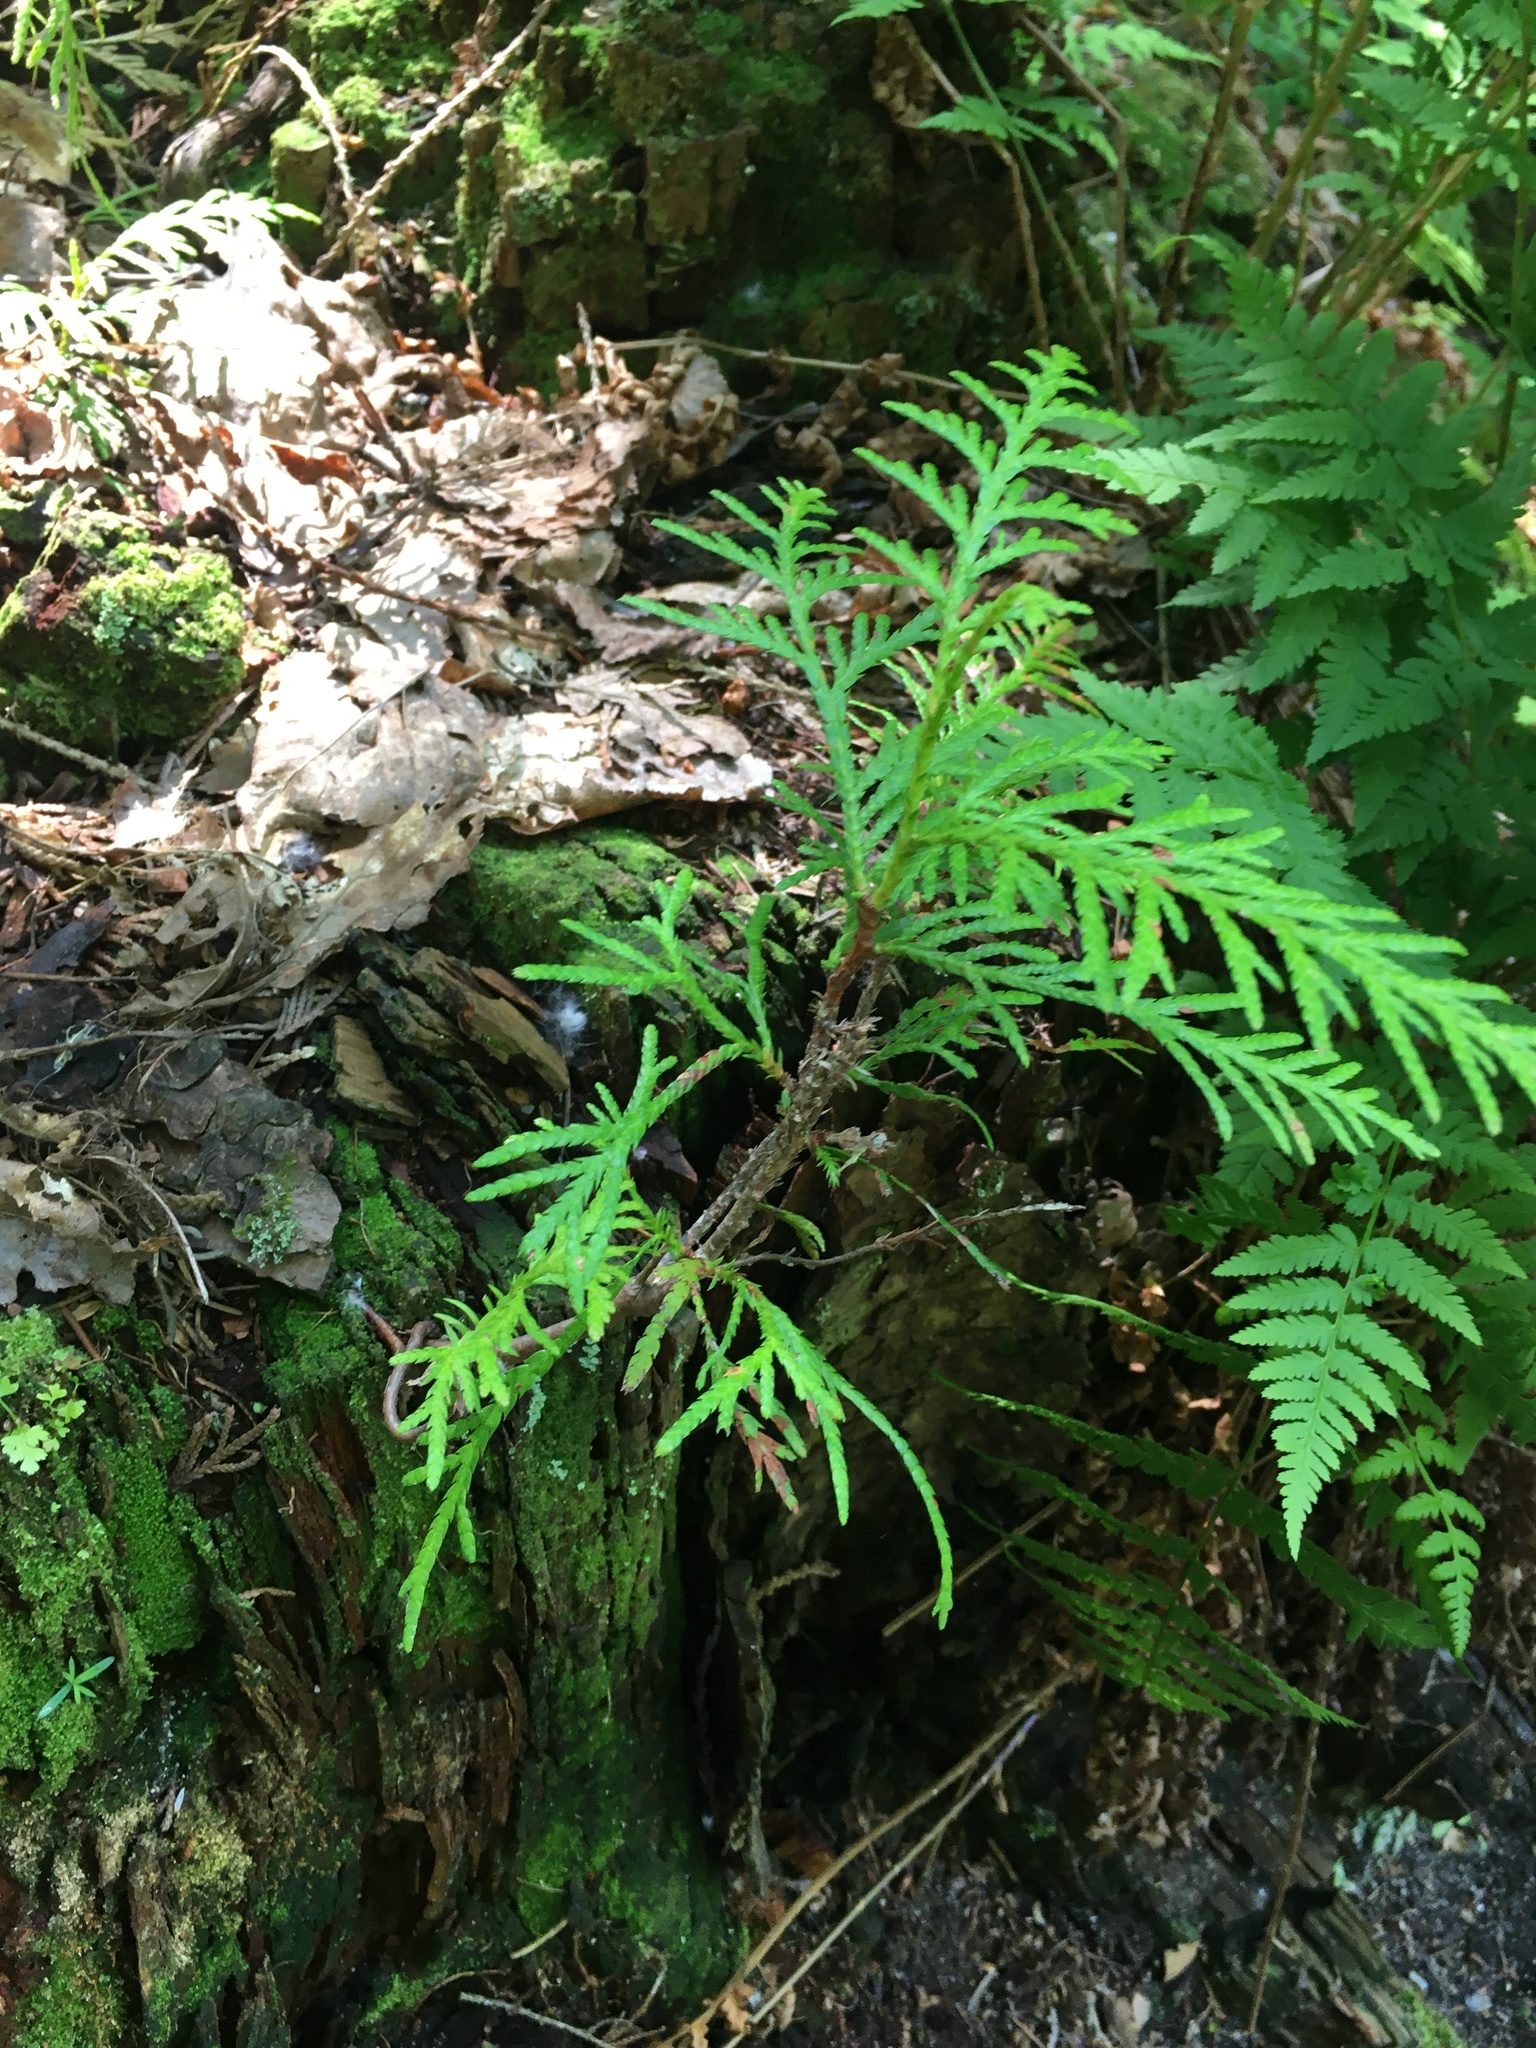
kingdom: Plantae
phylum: Tracheophyta
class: Pinopsida
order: Pinales
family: Cupressaceae
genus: Thuja
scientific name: Thuja plicata
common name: Western red-cedar
